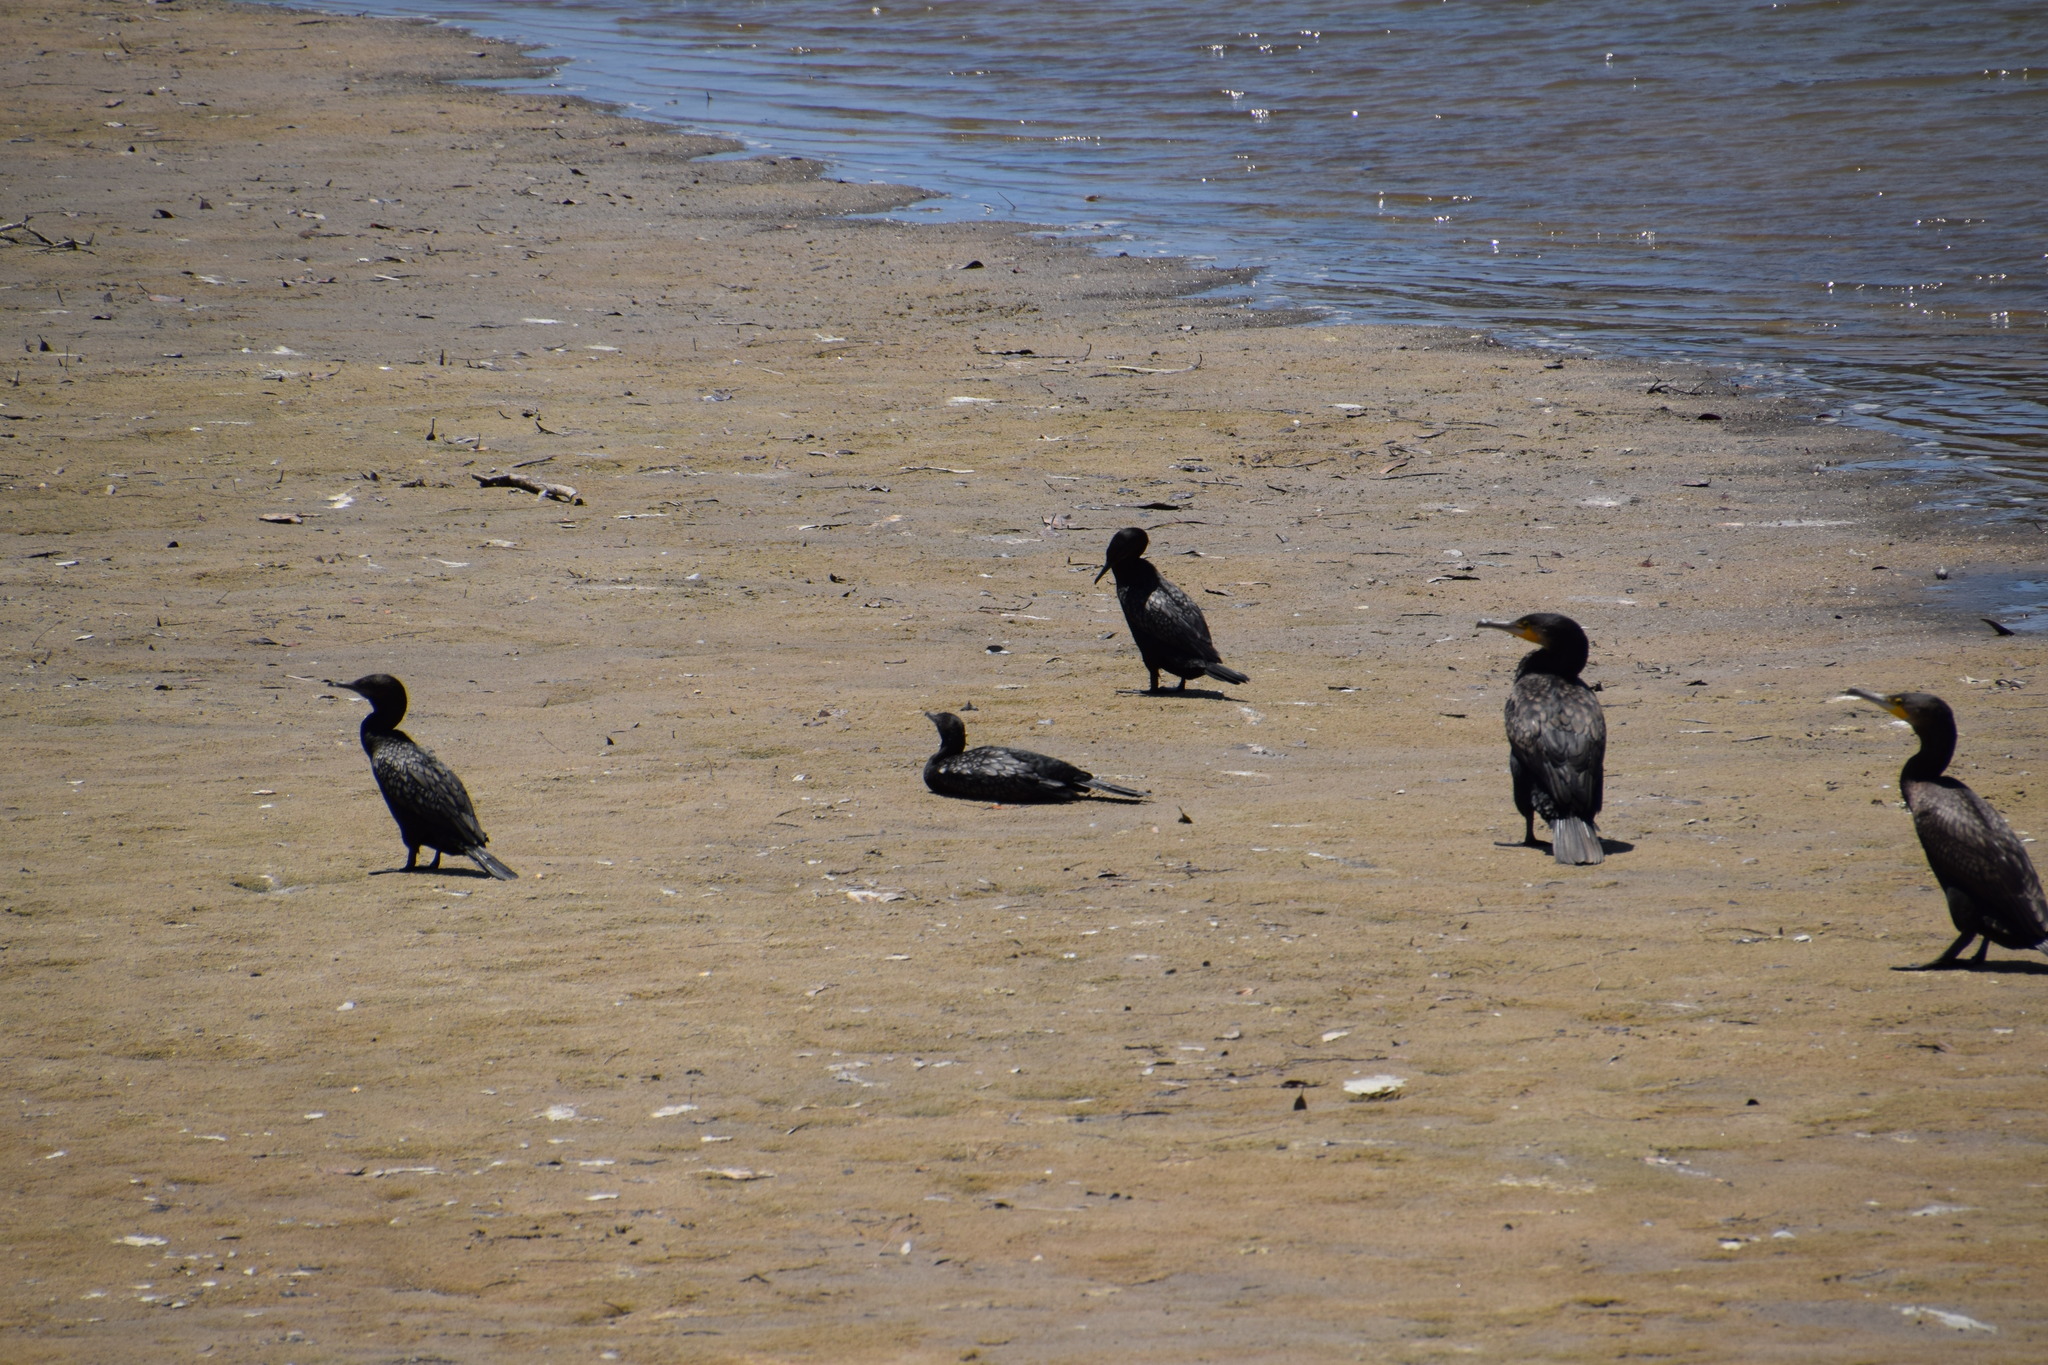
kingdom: Animalia
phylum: Chordata
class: Aves
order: Suliformes
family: Phalacrocoracidae
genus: Phalacrocorax
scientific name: Phalacrocorax sulcirostris
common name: Little black cormorant
